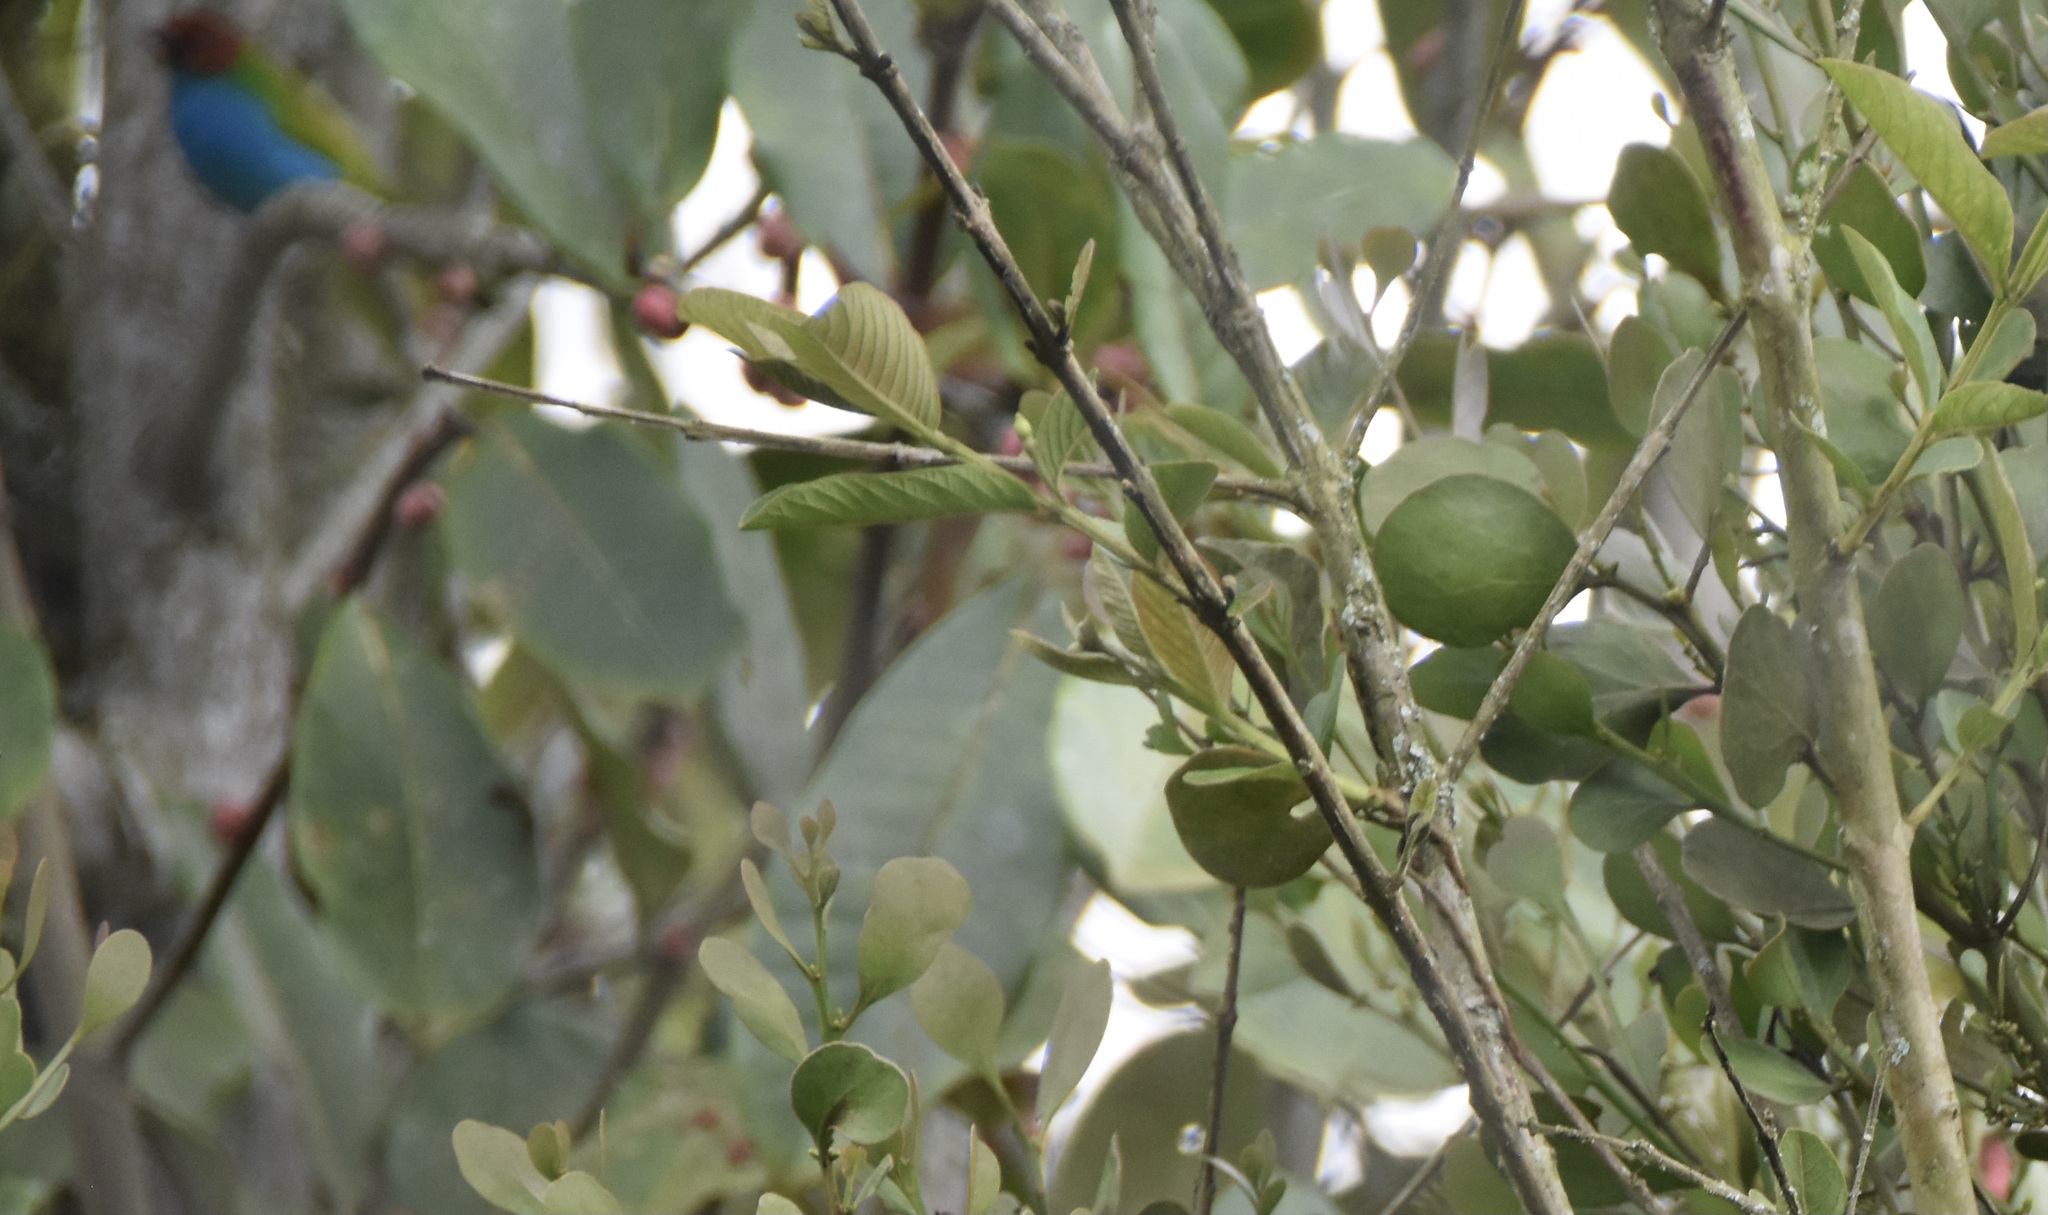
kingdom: Animalia
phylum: Chordata
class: Aves
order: Passeriformes
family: Thraupidae
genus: Tangara
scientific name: Tangara gyrola
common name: Bay-headed tanager
